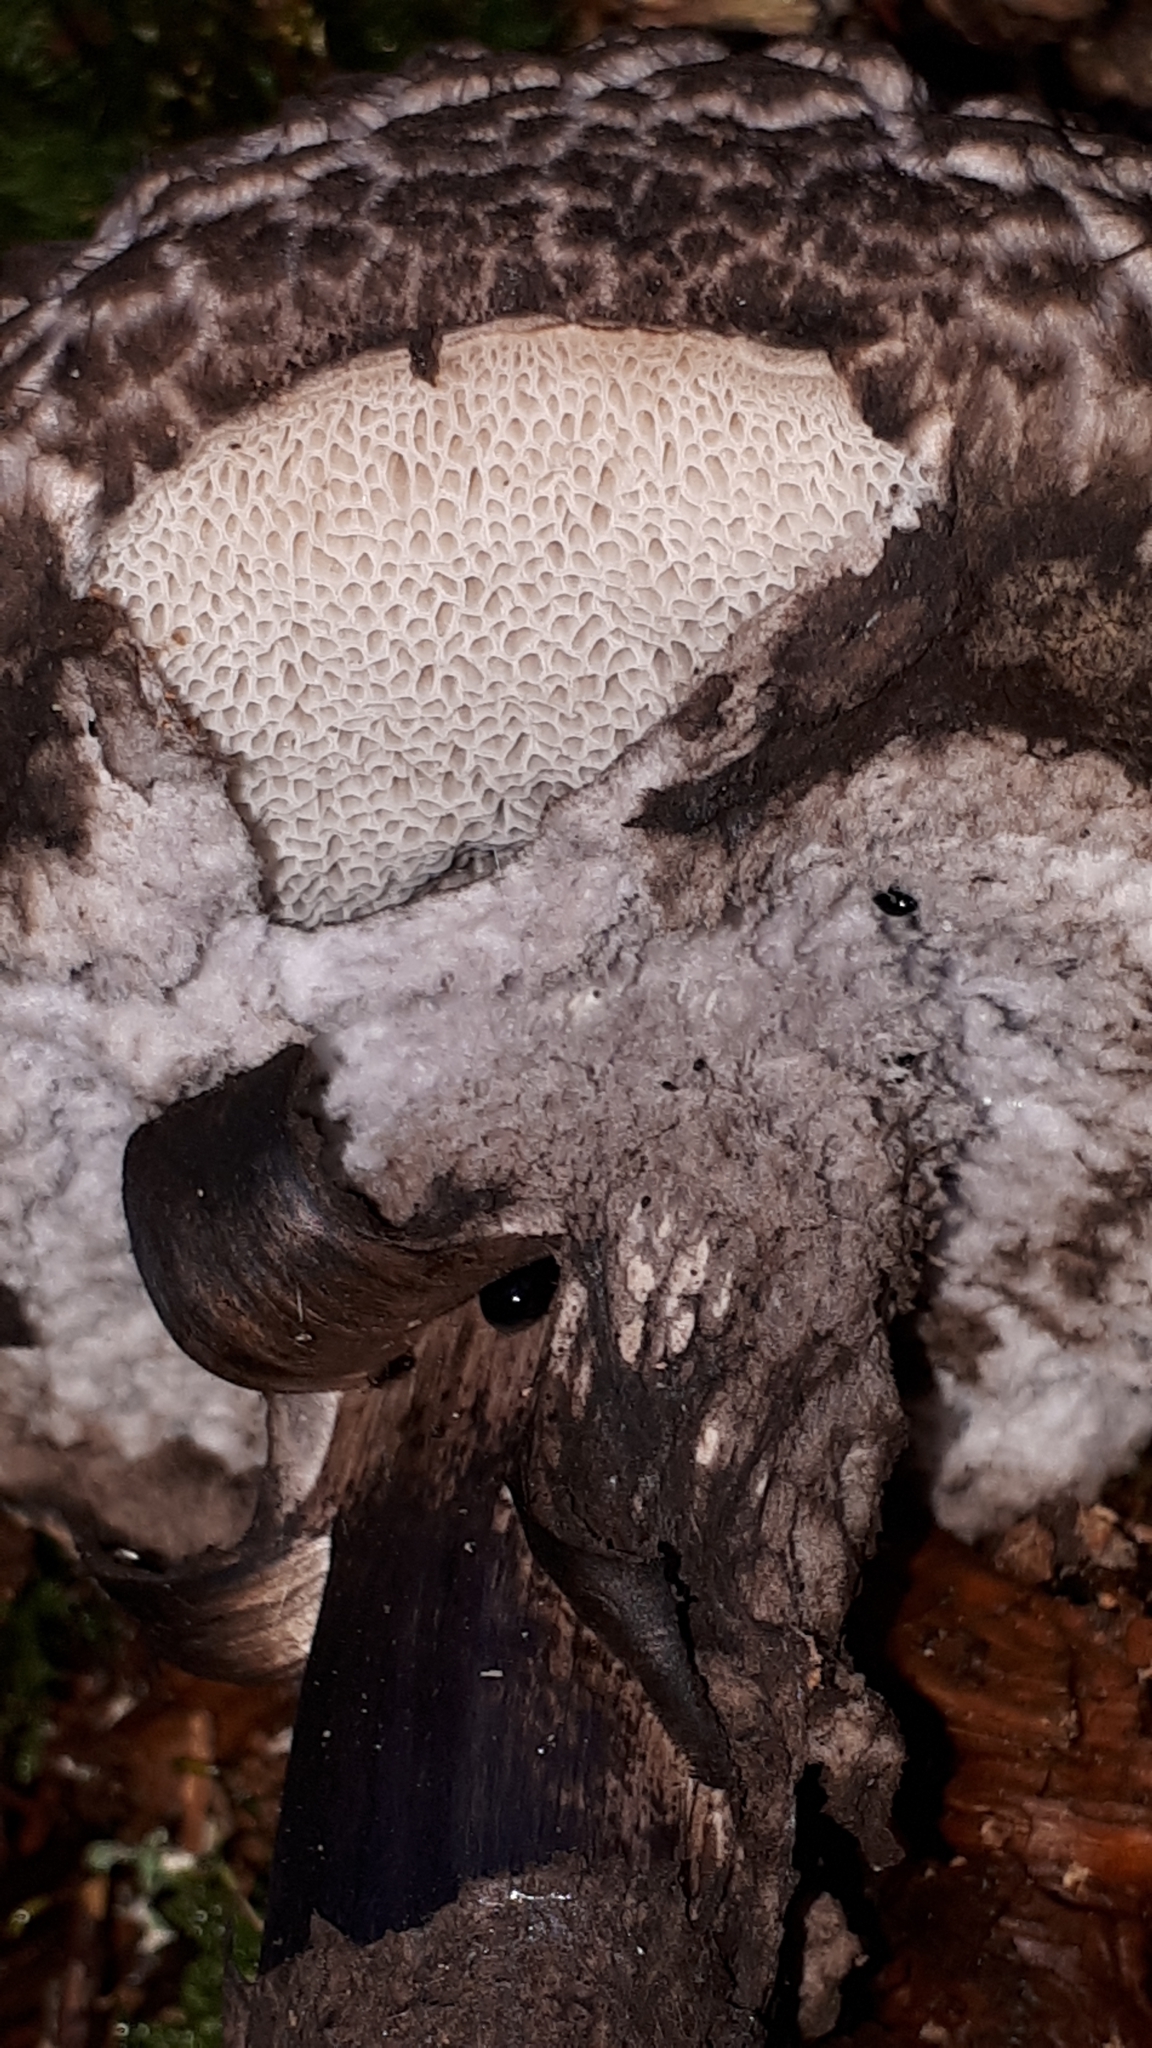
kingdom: Fungi
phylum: Basidiomycota
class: Agaricomycetes
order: Boletales
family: Boletaceae
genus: Strobilomyces
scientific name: Strobilomyces strobilaceus
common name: Old man of the woods
